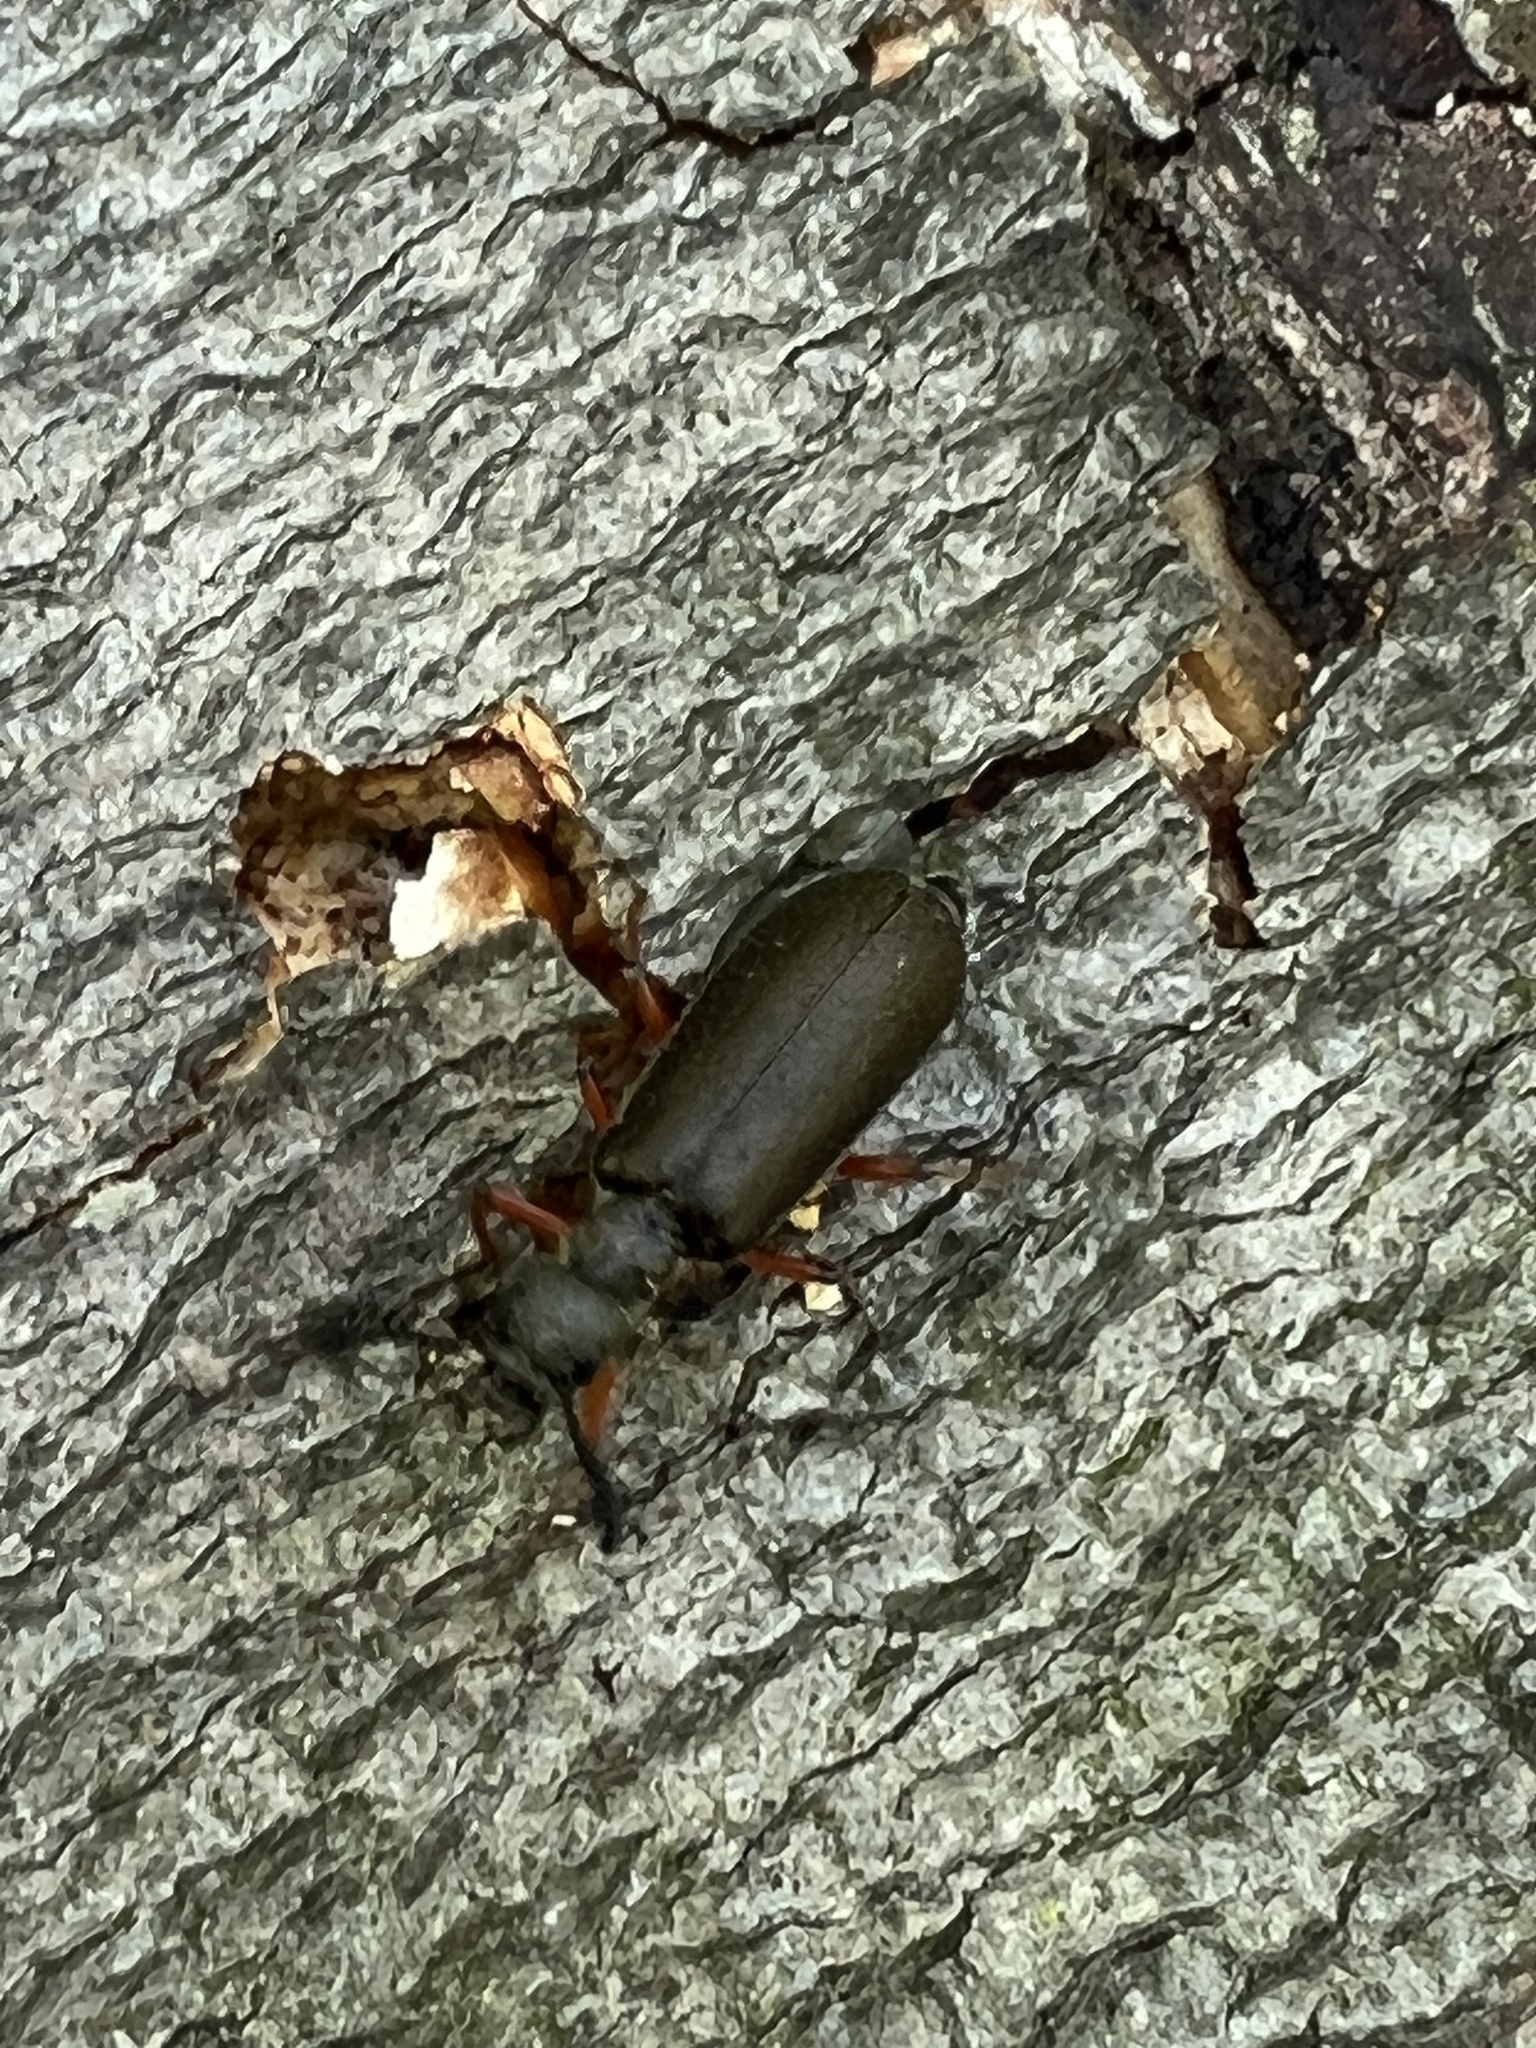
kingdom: Animalia
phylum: Arthropoda
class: Insecta
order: Coleoptera
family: Meloidae
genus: Lytta
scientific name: Lytta aenea
